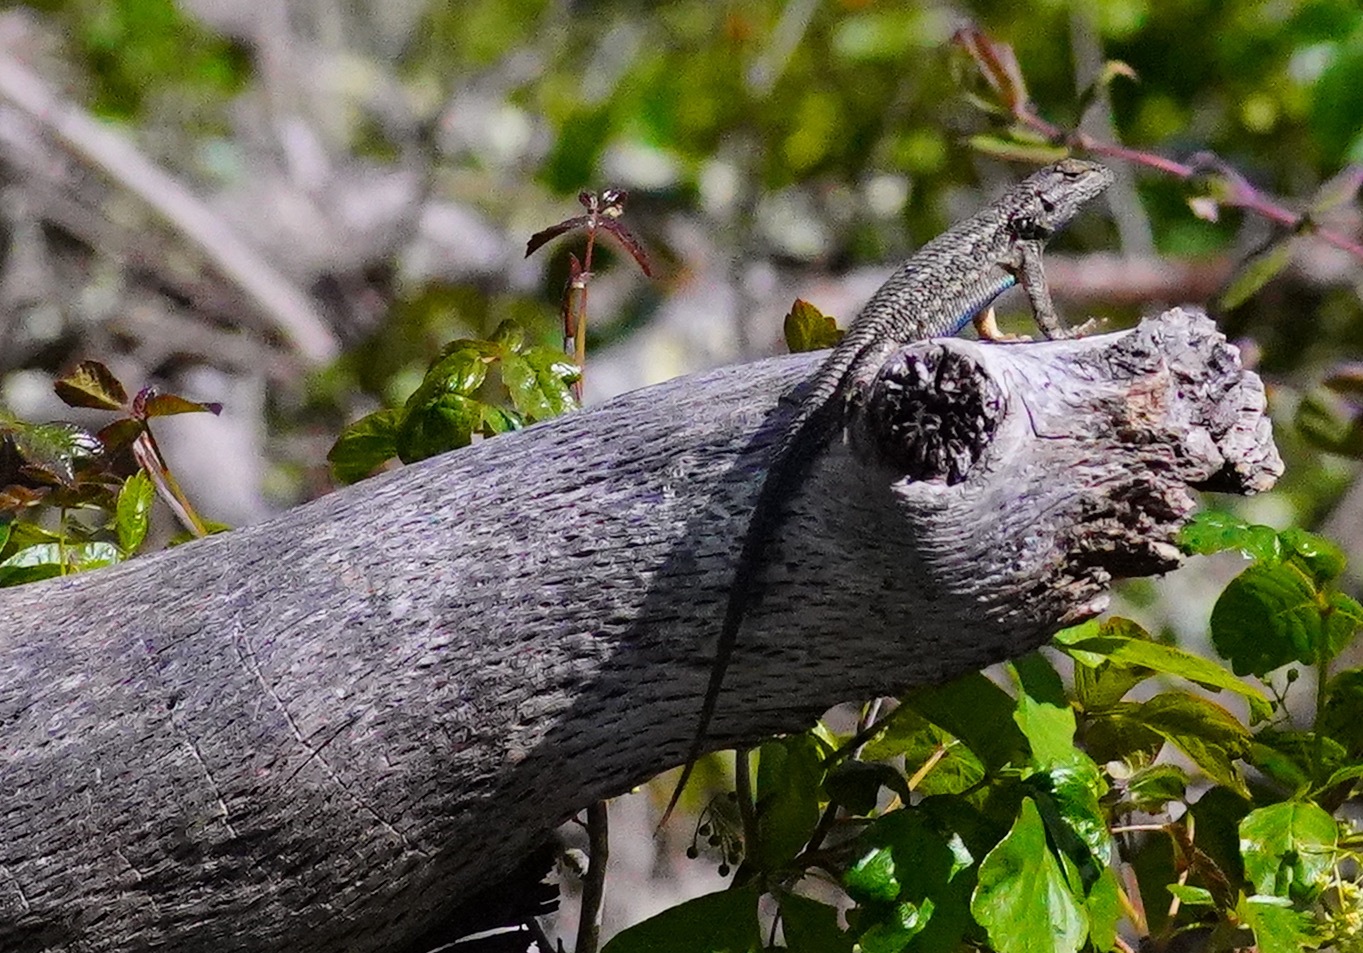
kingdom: Animalia
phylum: Chordata
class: Squamata
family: Phrynosomatidae
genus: Sceloporus
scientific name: Sceloporus occidentalis
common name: Western fence lizard
